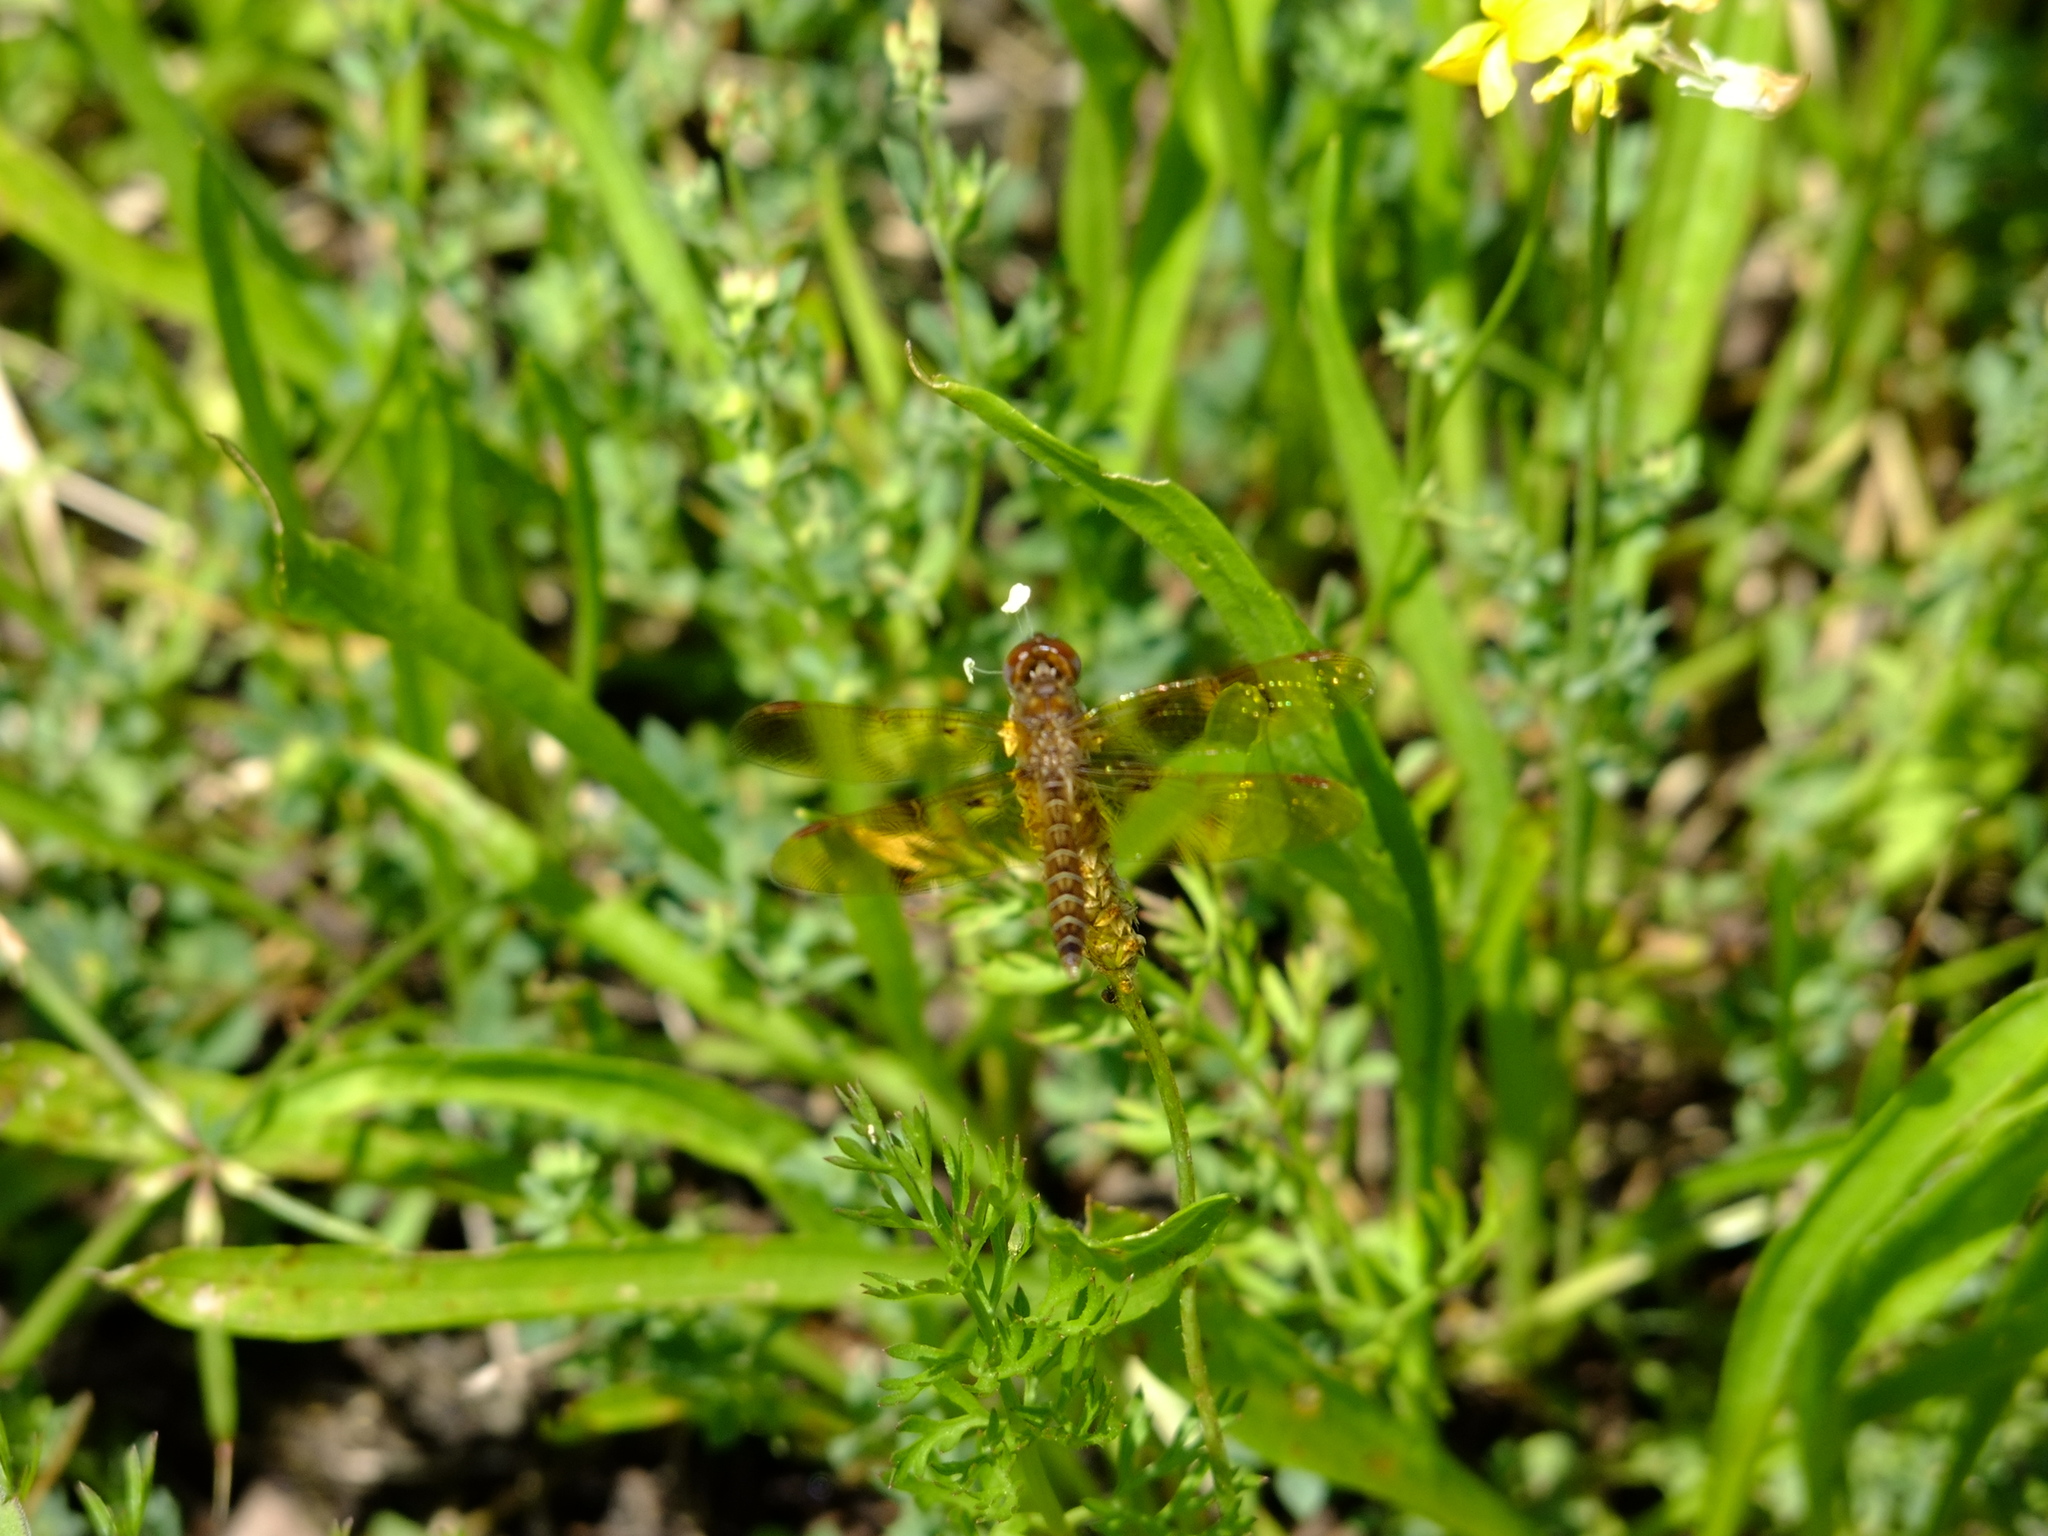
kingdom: Animalia
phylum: Arthropoda
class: Insecta
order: Odonata
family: Libellulidae
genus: Perithemis
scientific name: Perithemis tenera
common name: Eastern amberwing
